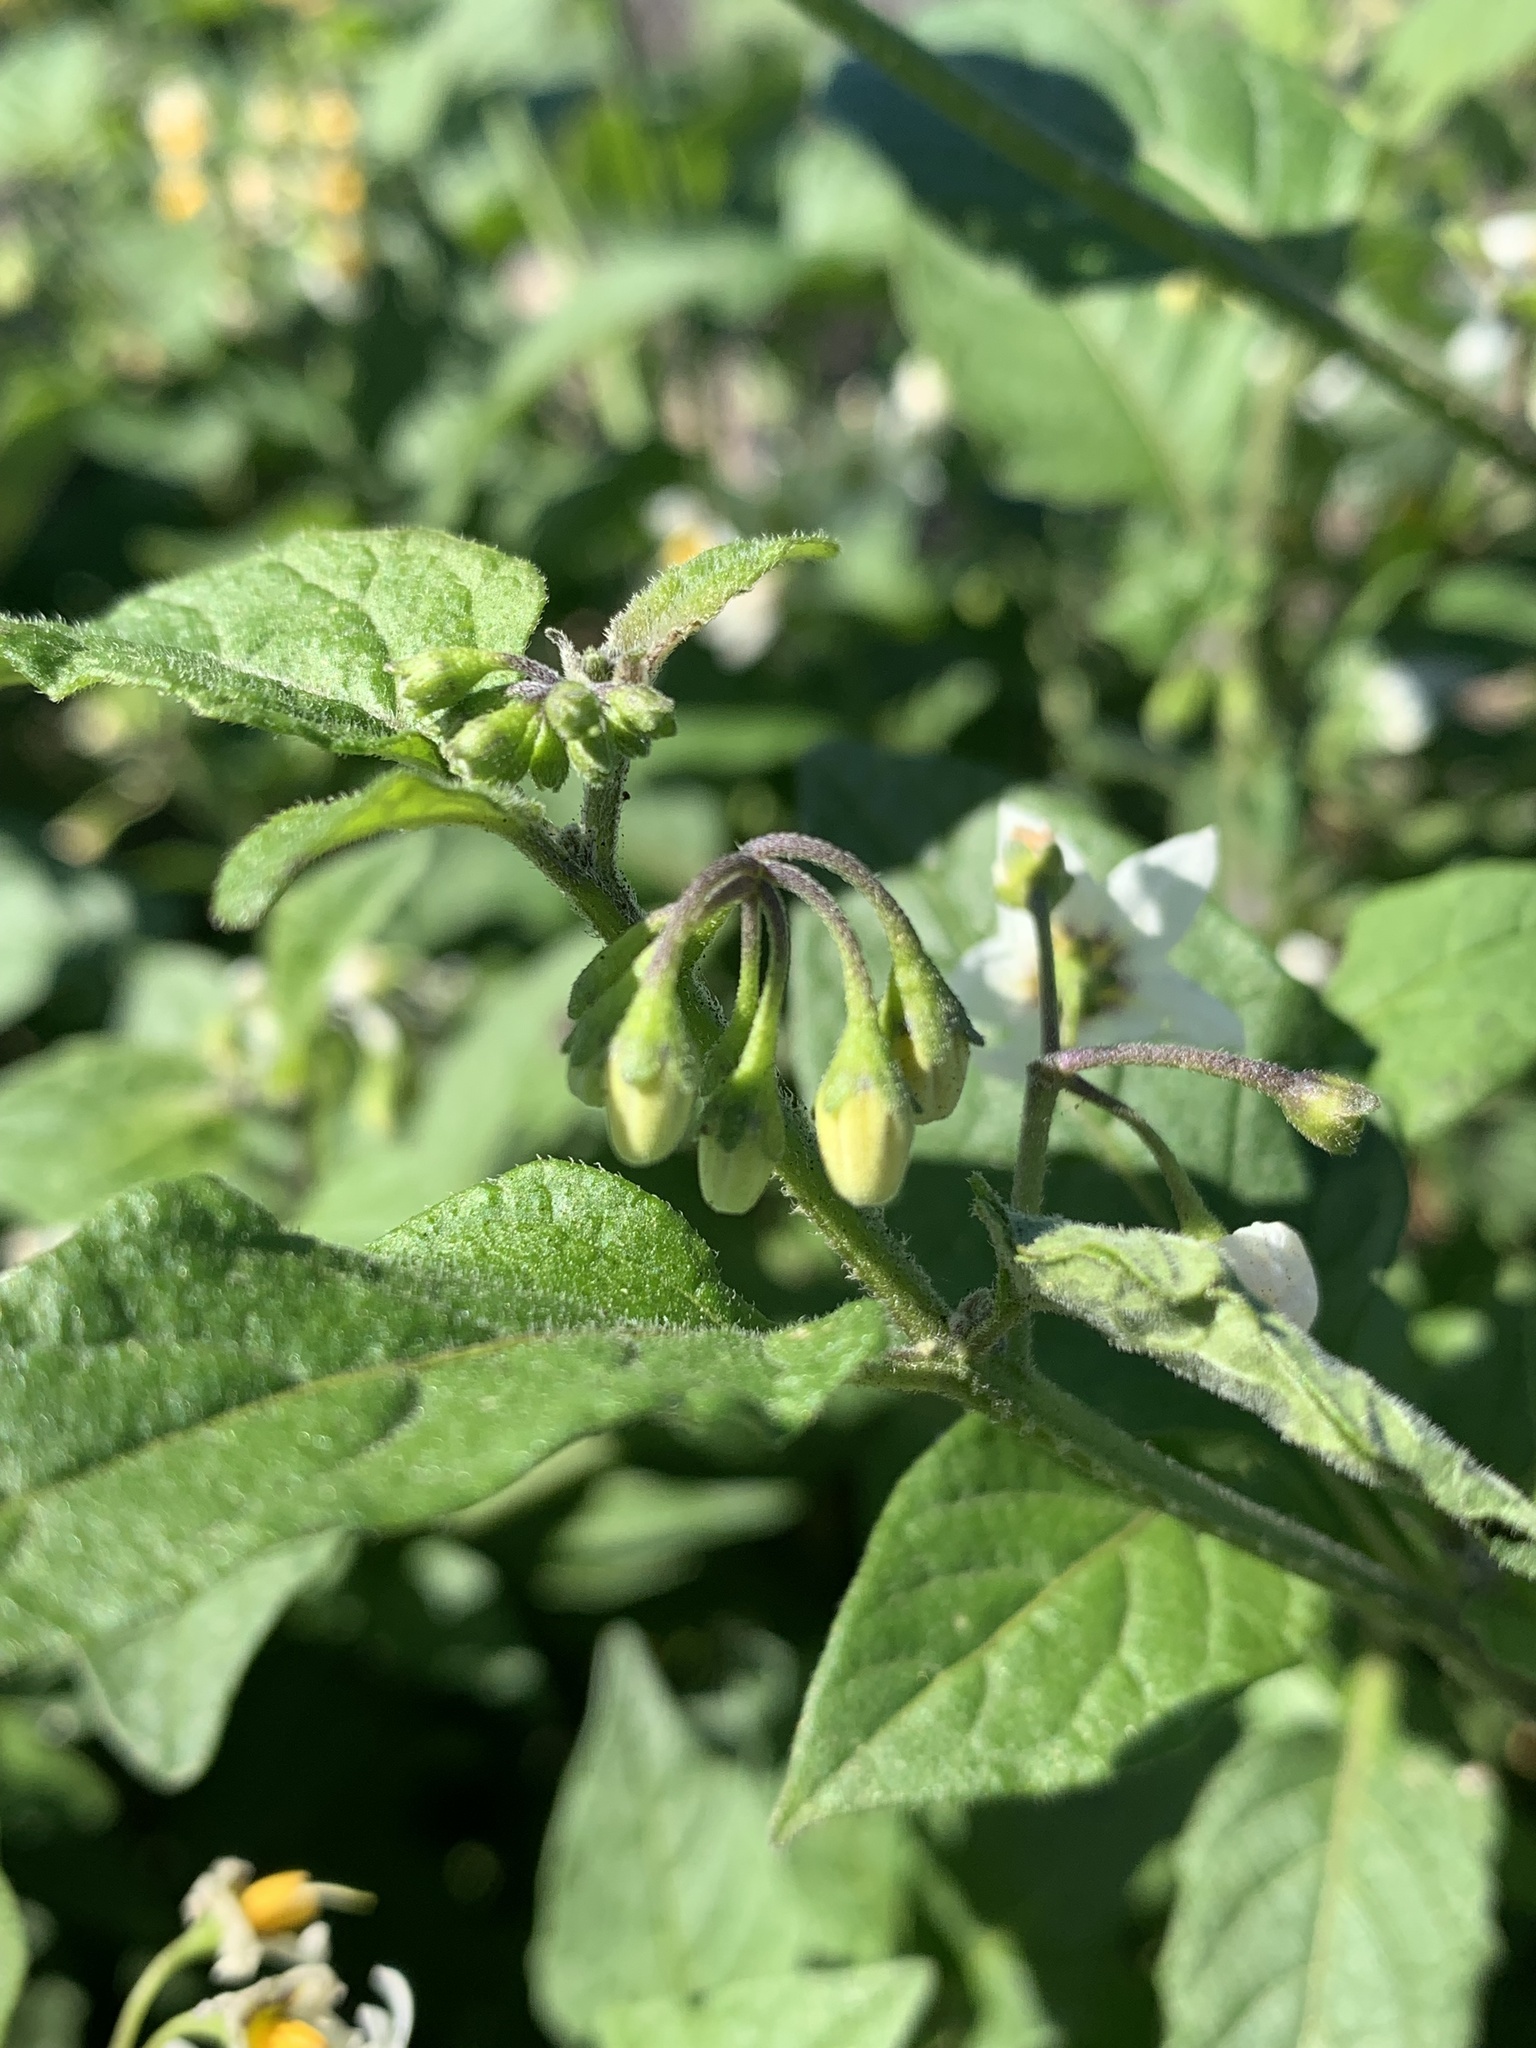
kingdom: Plantae
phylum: Tracheophyta
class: Magnoliopsida
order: Solanales
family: Solanaceae
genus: Solanum
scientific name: Solanum douglasii
